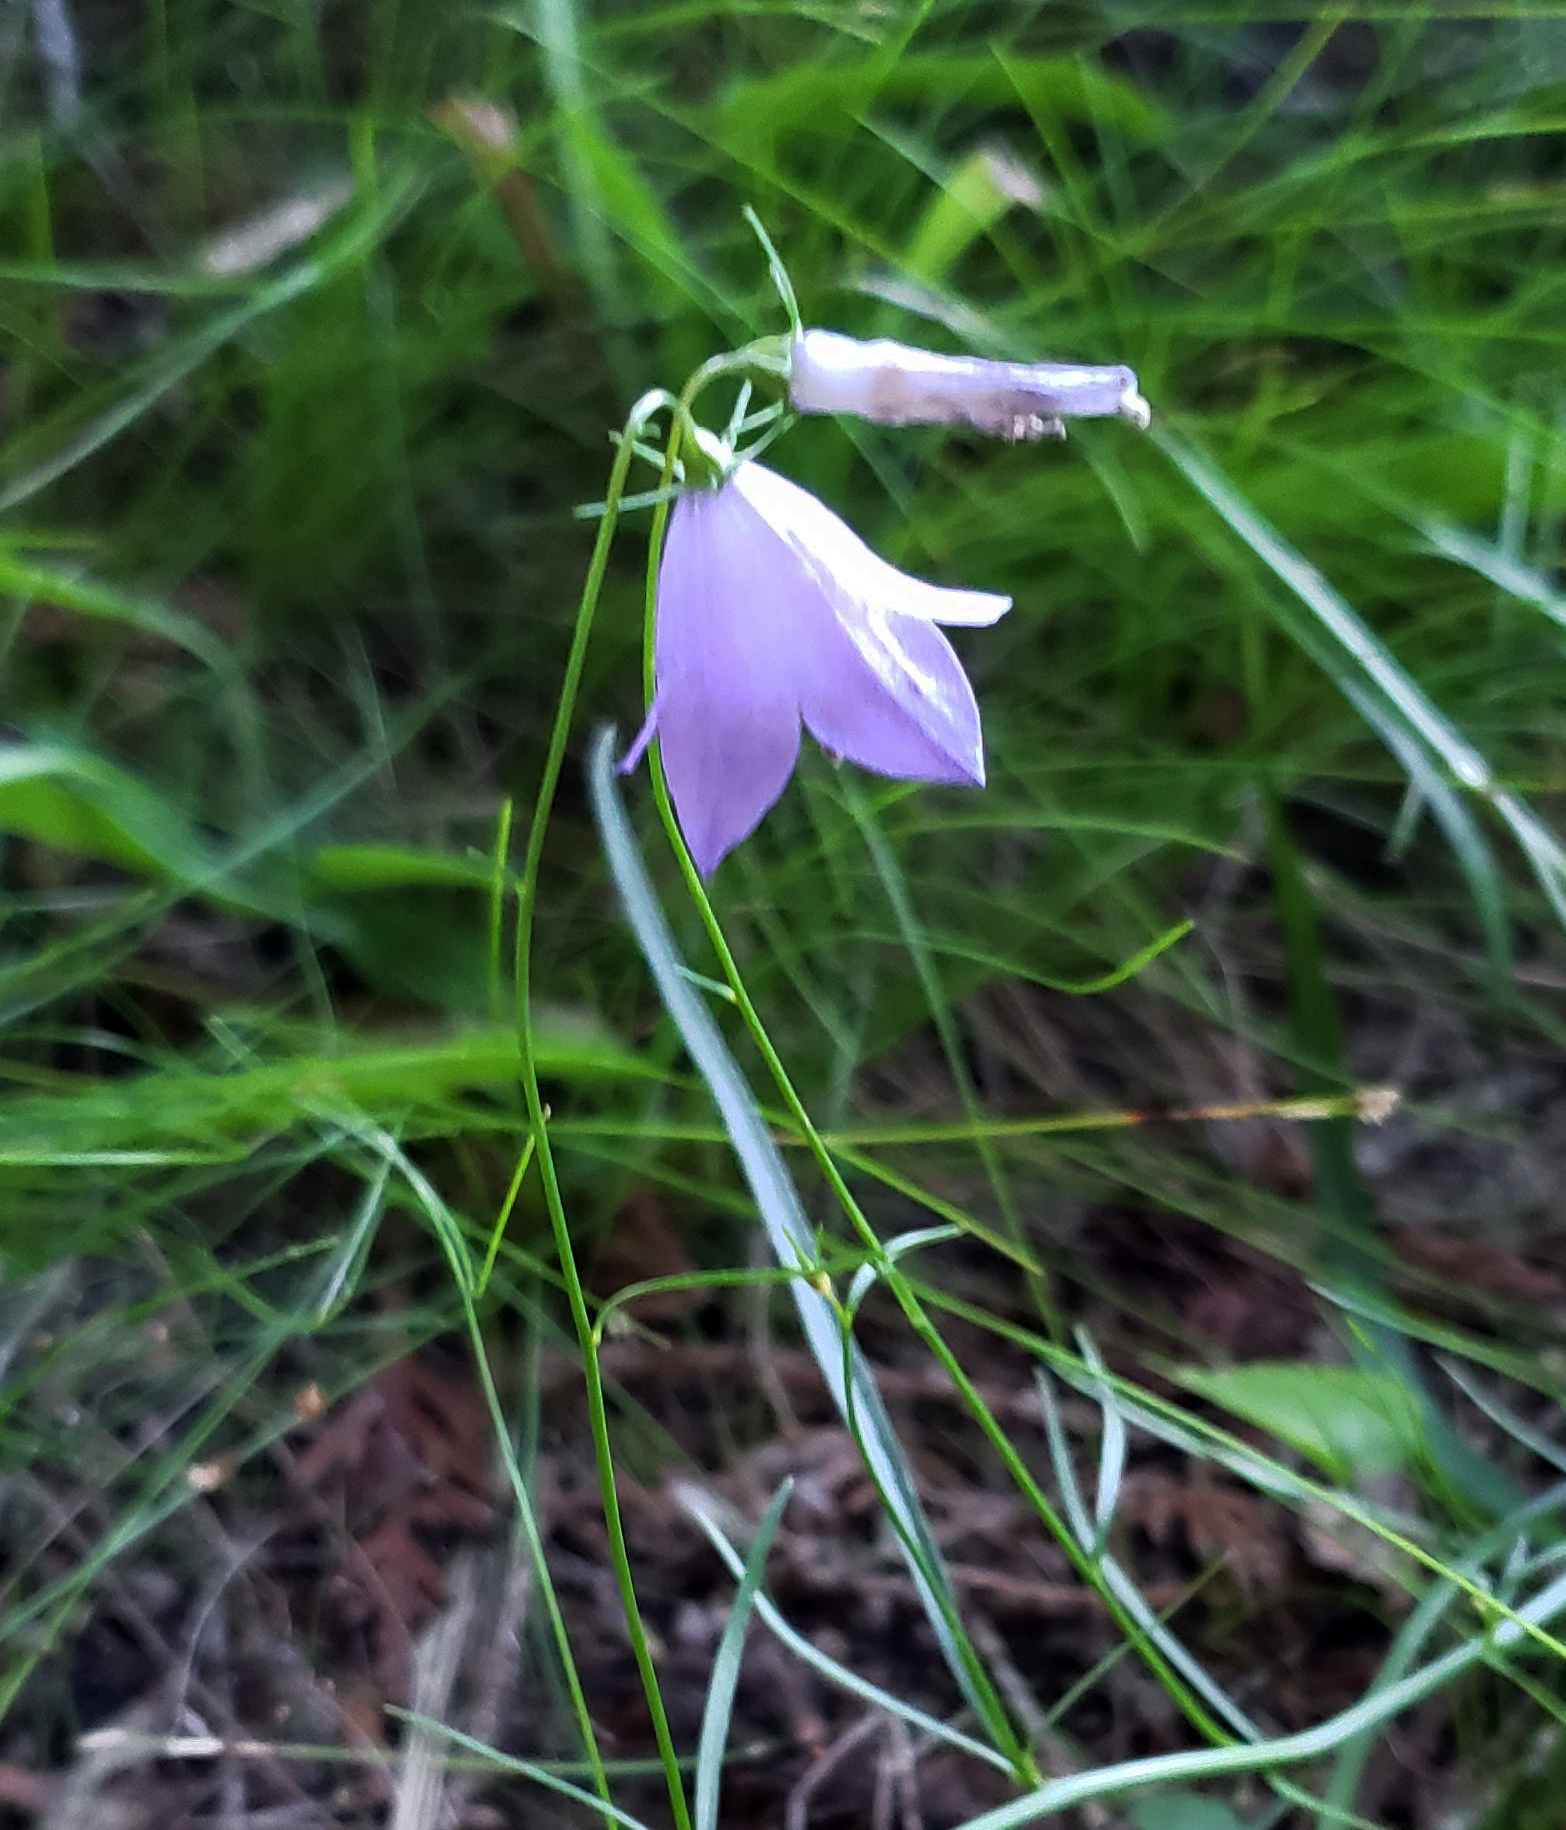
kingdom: Plantae
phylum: Tracheophyta
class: Magnoliopsida
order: Asterales
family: Campanulaceae
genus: Campanula
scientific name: Campanula intercedens
